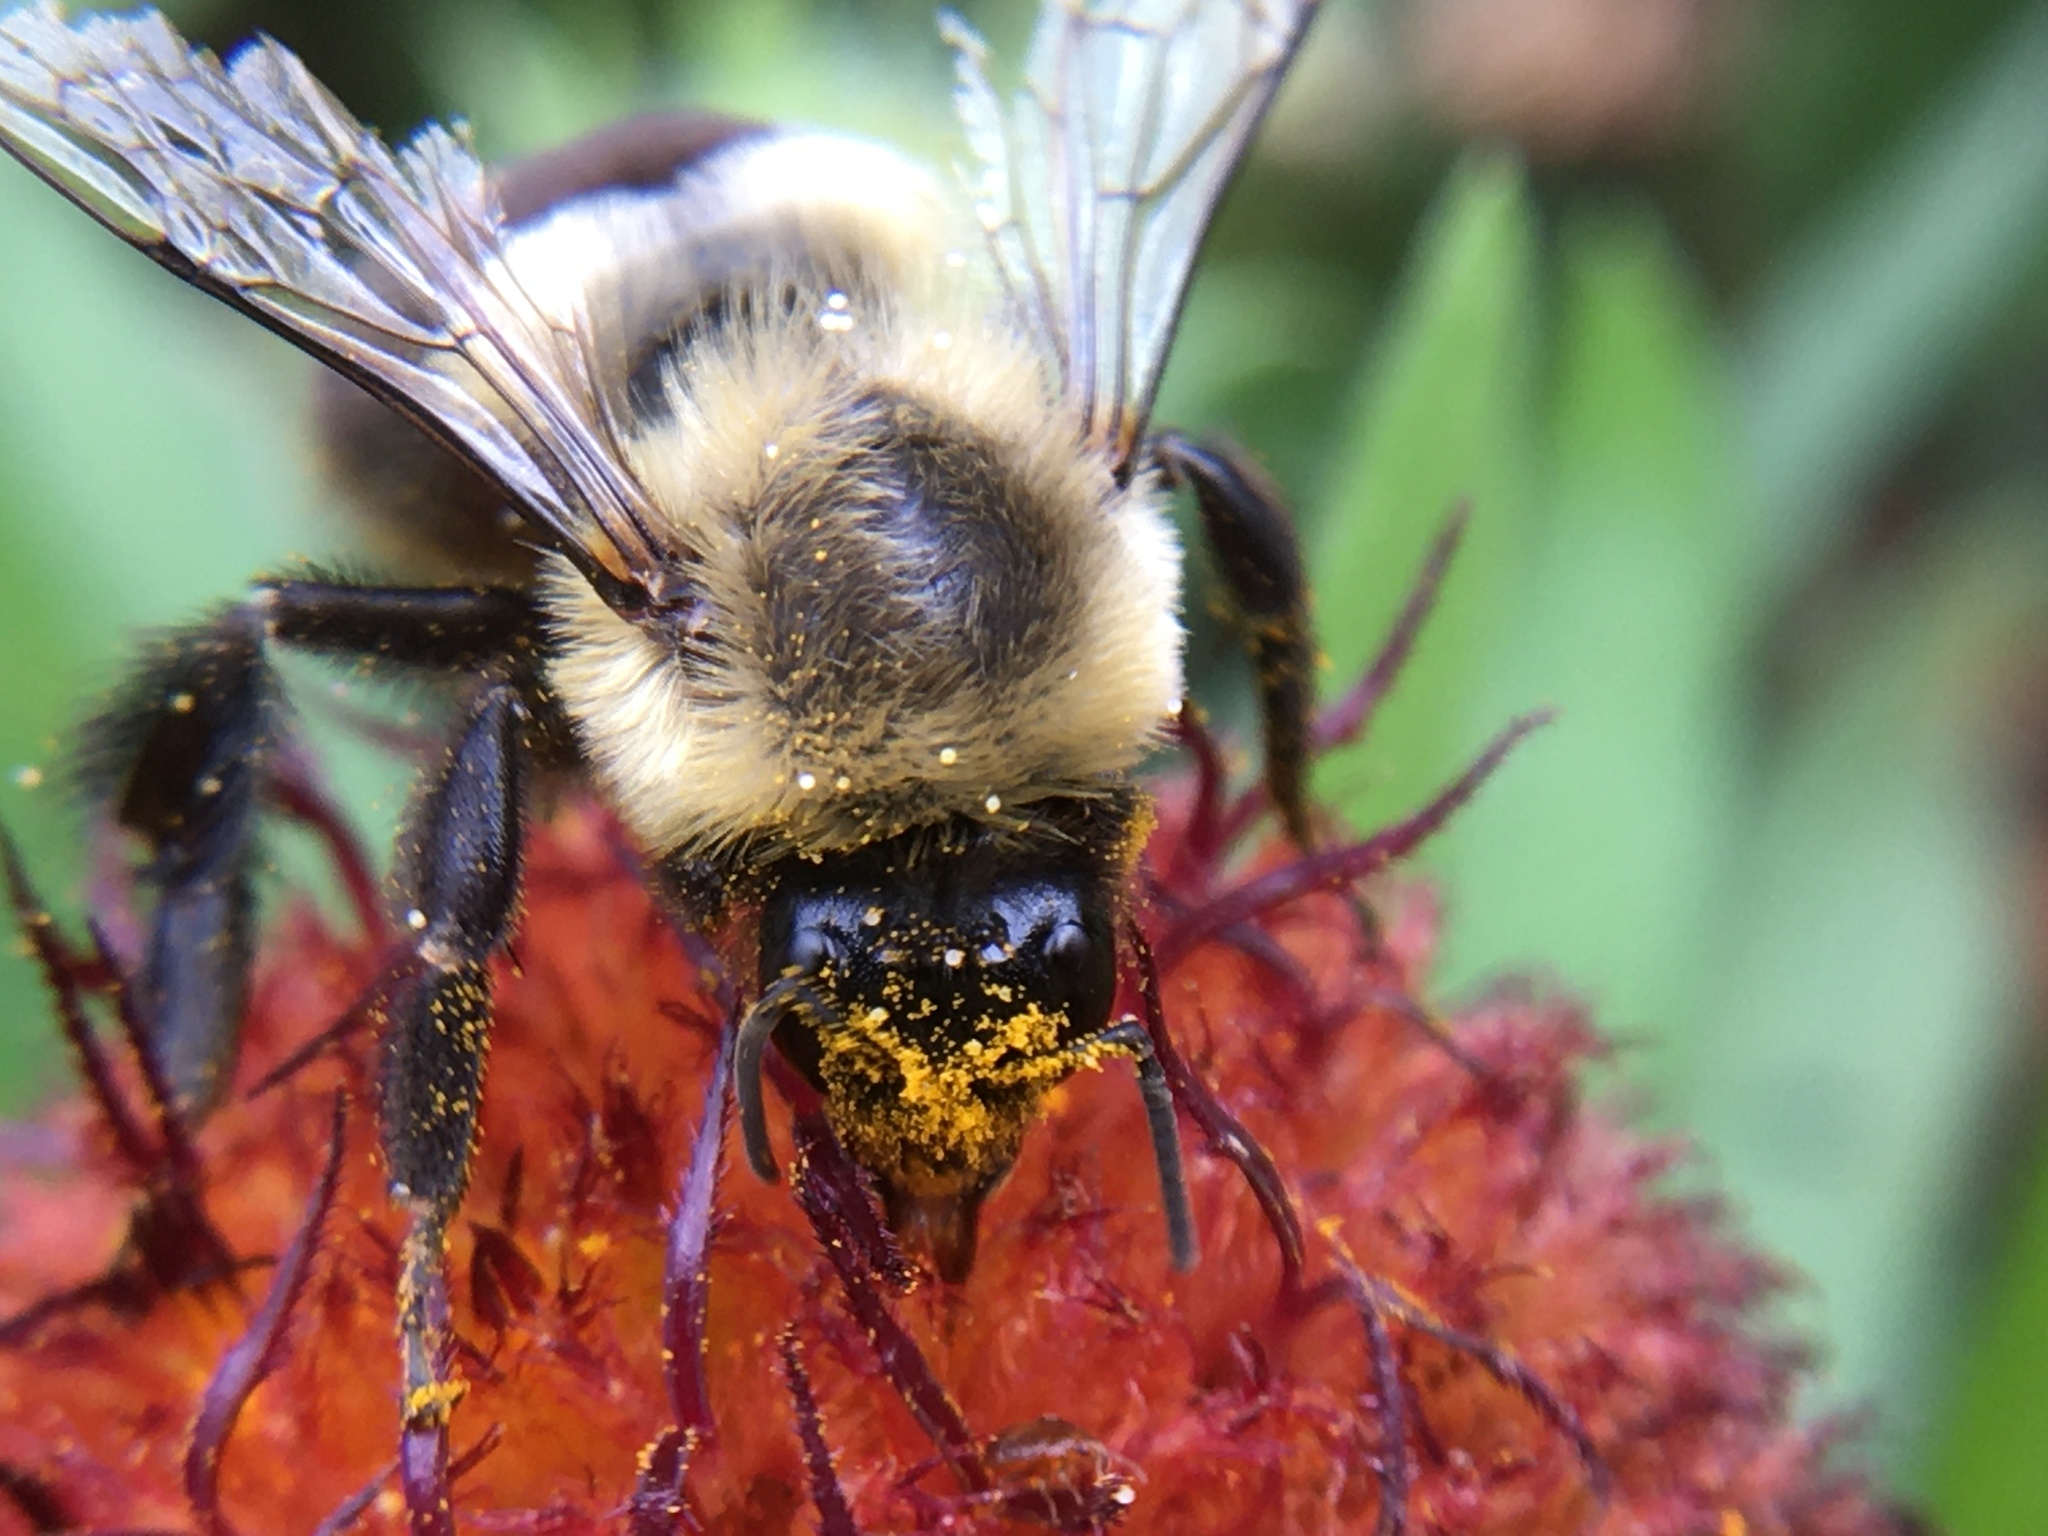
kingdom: Animalia
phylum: Arthropoda
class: Insecta
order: Hymenoptera
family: Apidae
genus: Bombus
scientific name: Bombus impatiens
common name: Common eastern bumble bee
